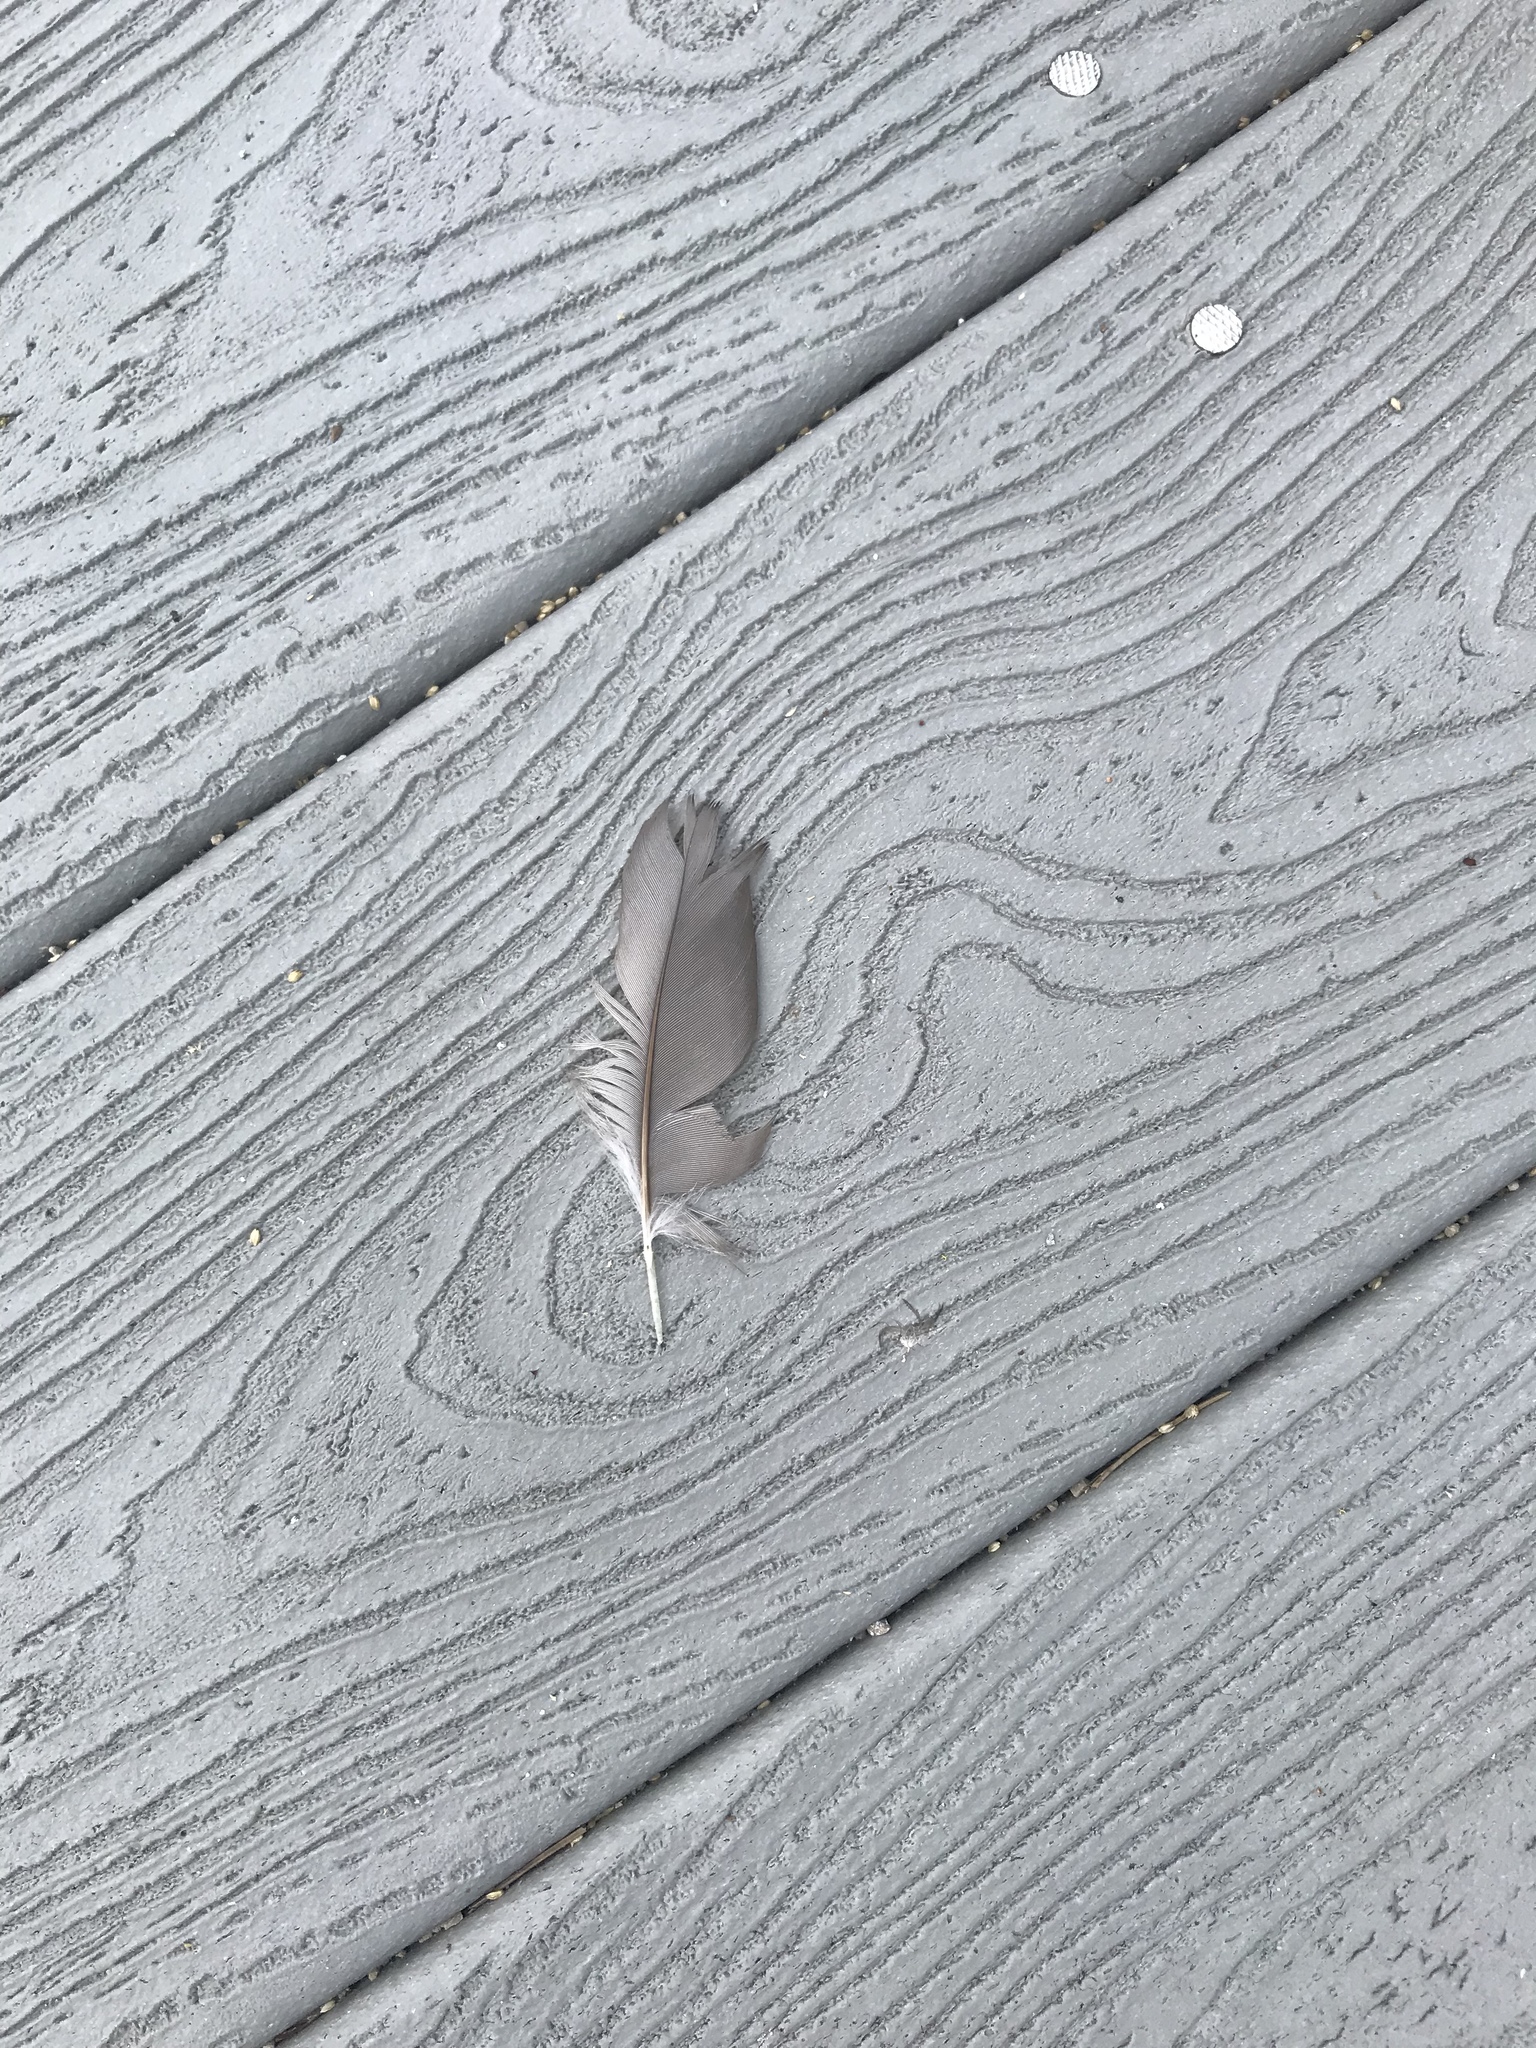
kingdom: Animalia
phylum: Chordata
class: Aves
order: Suliformes
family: Phalacrocoracidae
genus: Phalacrocorax
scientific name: Phalacrocorax auritus
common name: Double-crested cormorant
